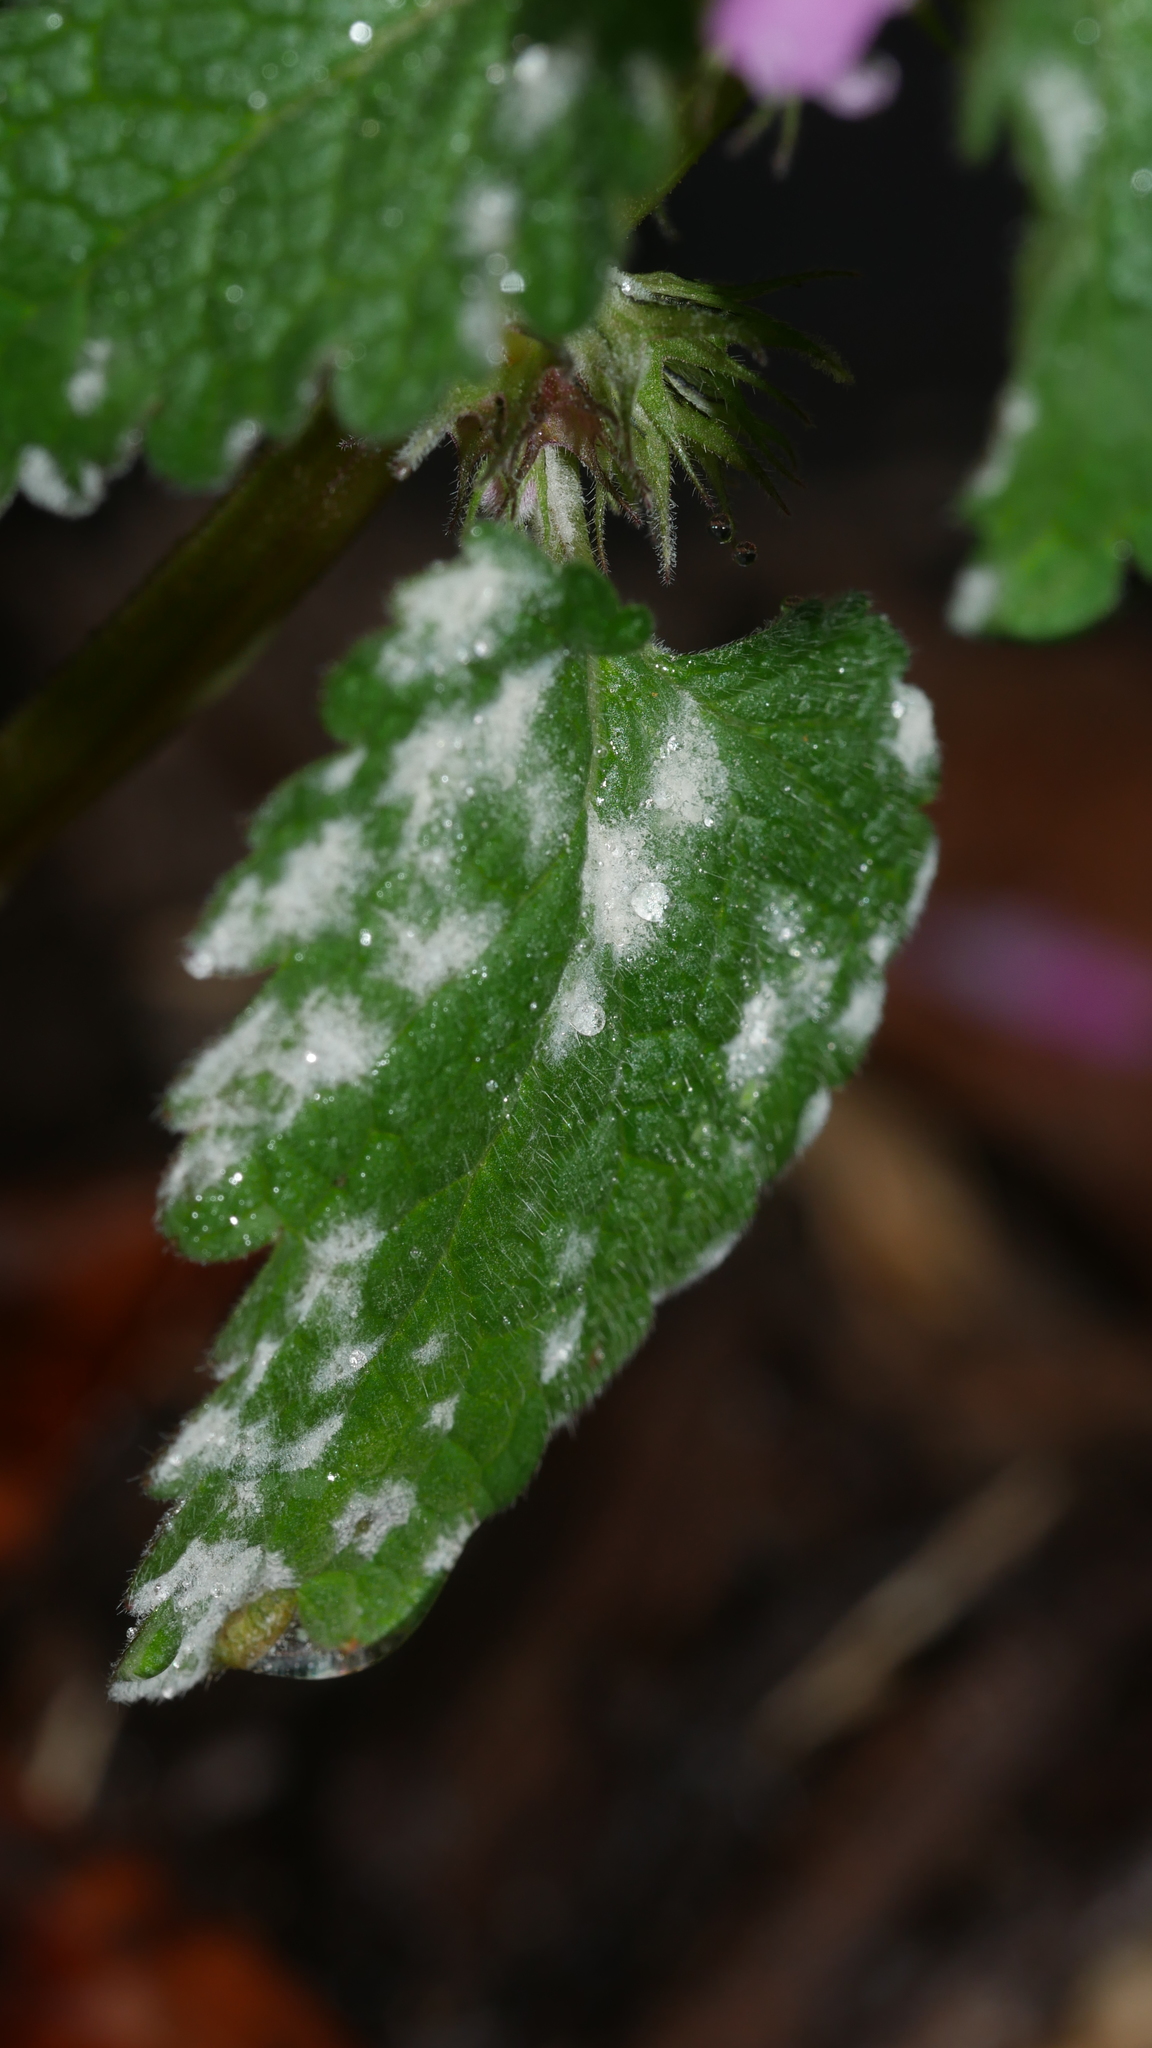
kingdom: Fungi
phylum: Ascomycota
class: Leotiomycetes
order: Helotiales
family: Erysiphaceae
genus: Neoerysiphe
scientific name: Neoerysiphe galeopsidis
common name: Mint mildew
